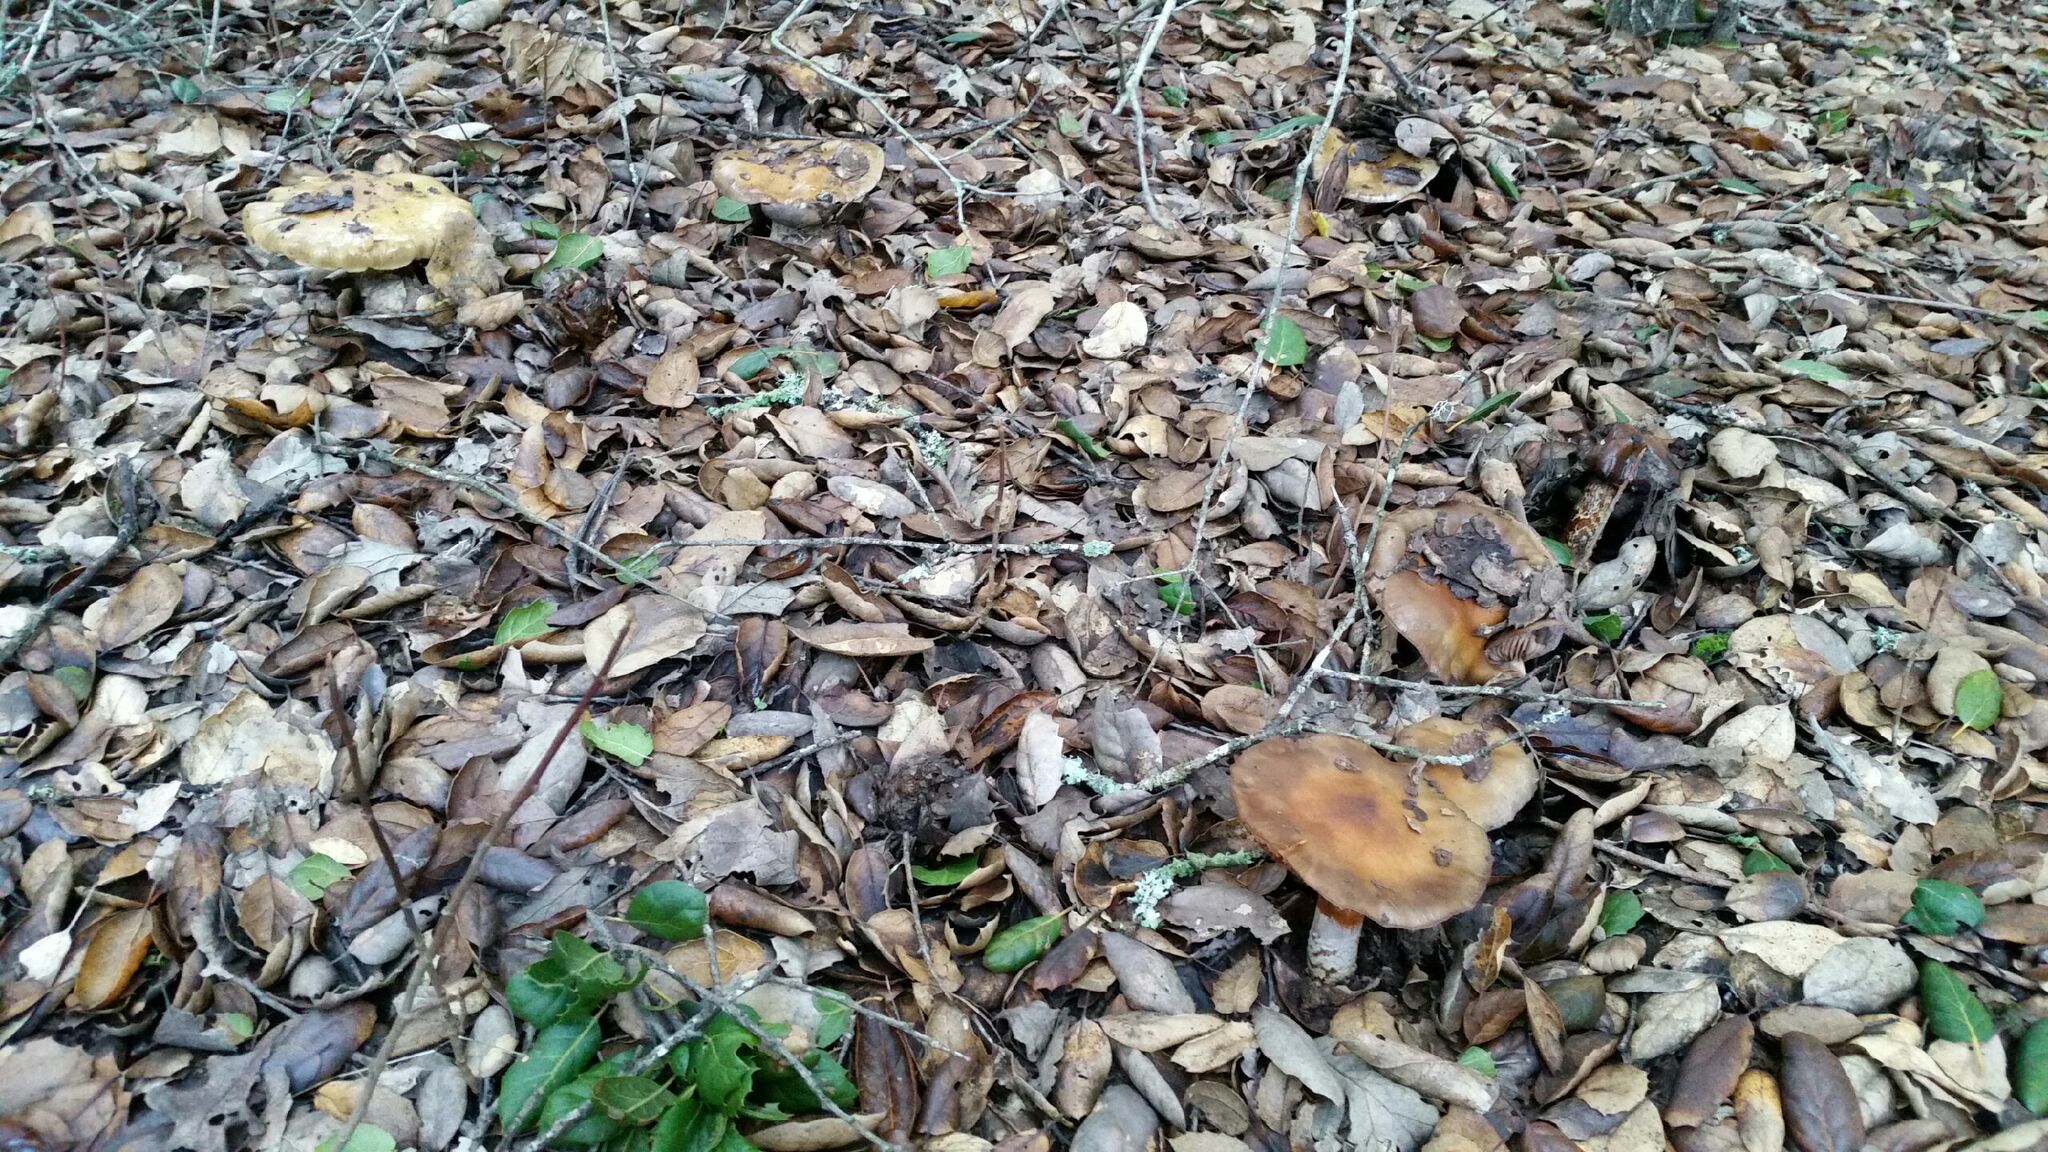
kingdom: Fungi
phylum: Basidiomycota
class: Agaricomycetes
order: Agaricales
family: Cortinariaceae
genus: Cortinarius
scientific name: Cortinarius glutinosoarmillatus
